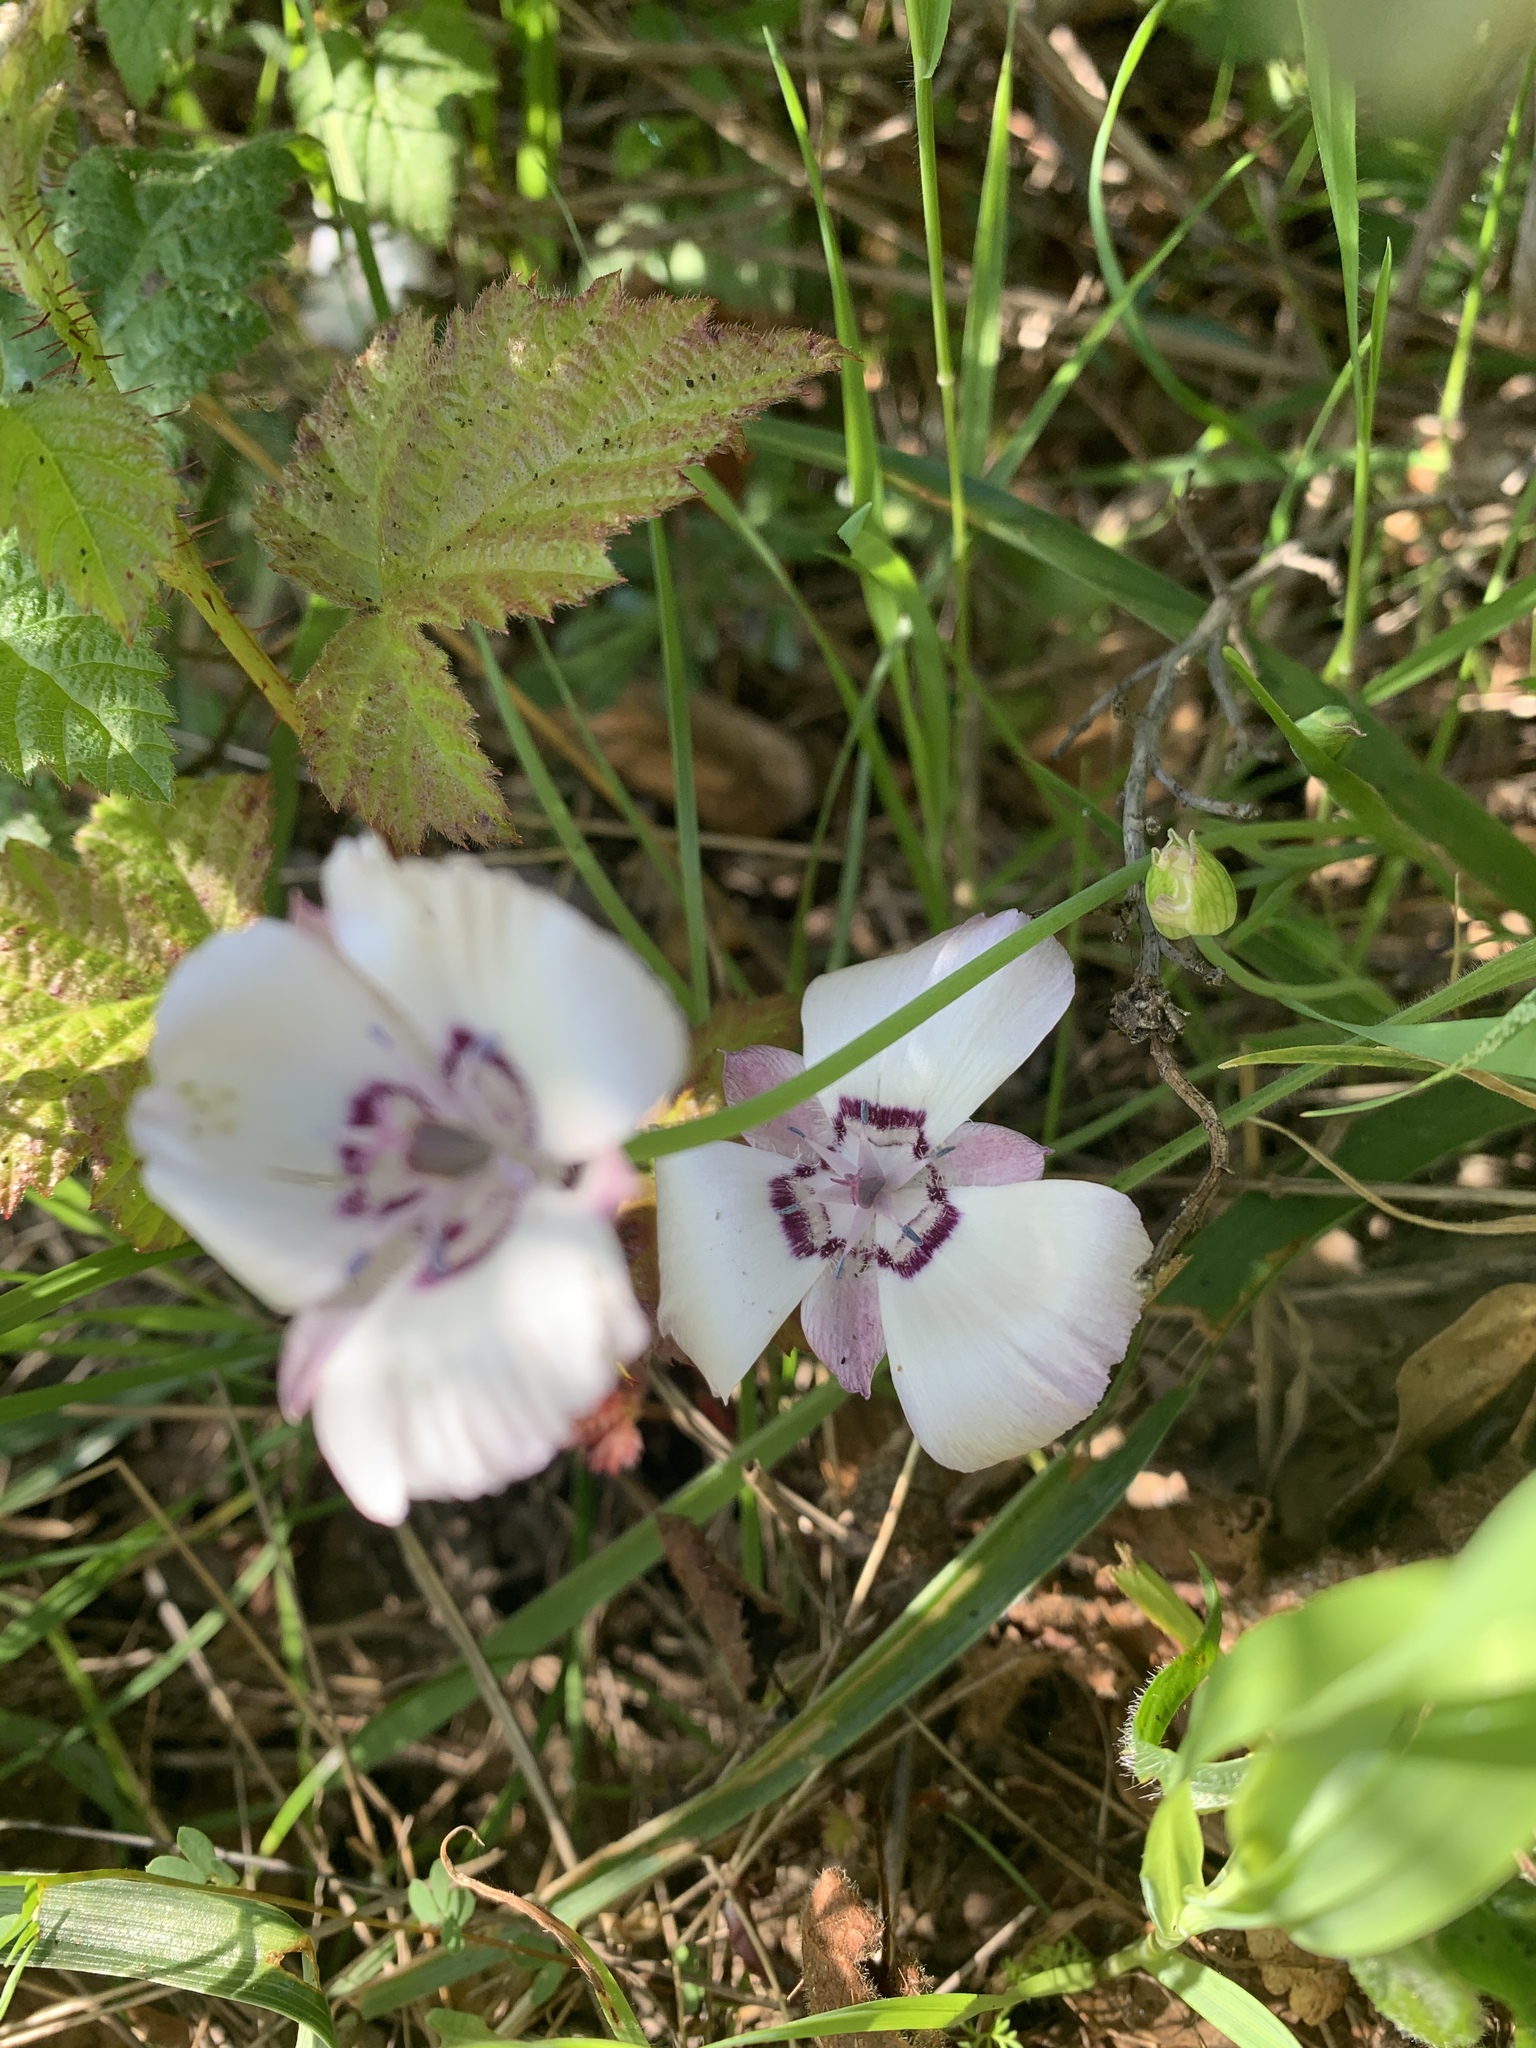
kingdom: Plantae
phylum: Tracheophyta
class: Liliopsida
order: Liliales
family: Liliaceae
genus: Calochortus
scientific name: Calochortus umbellatus
